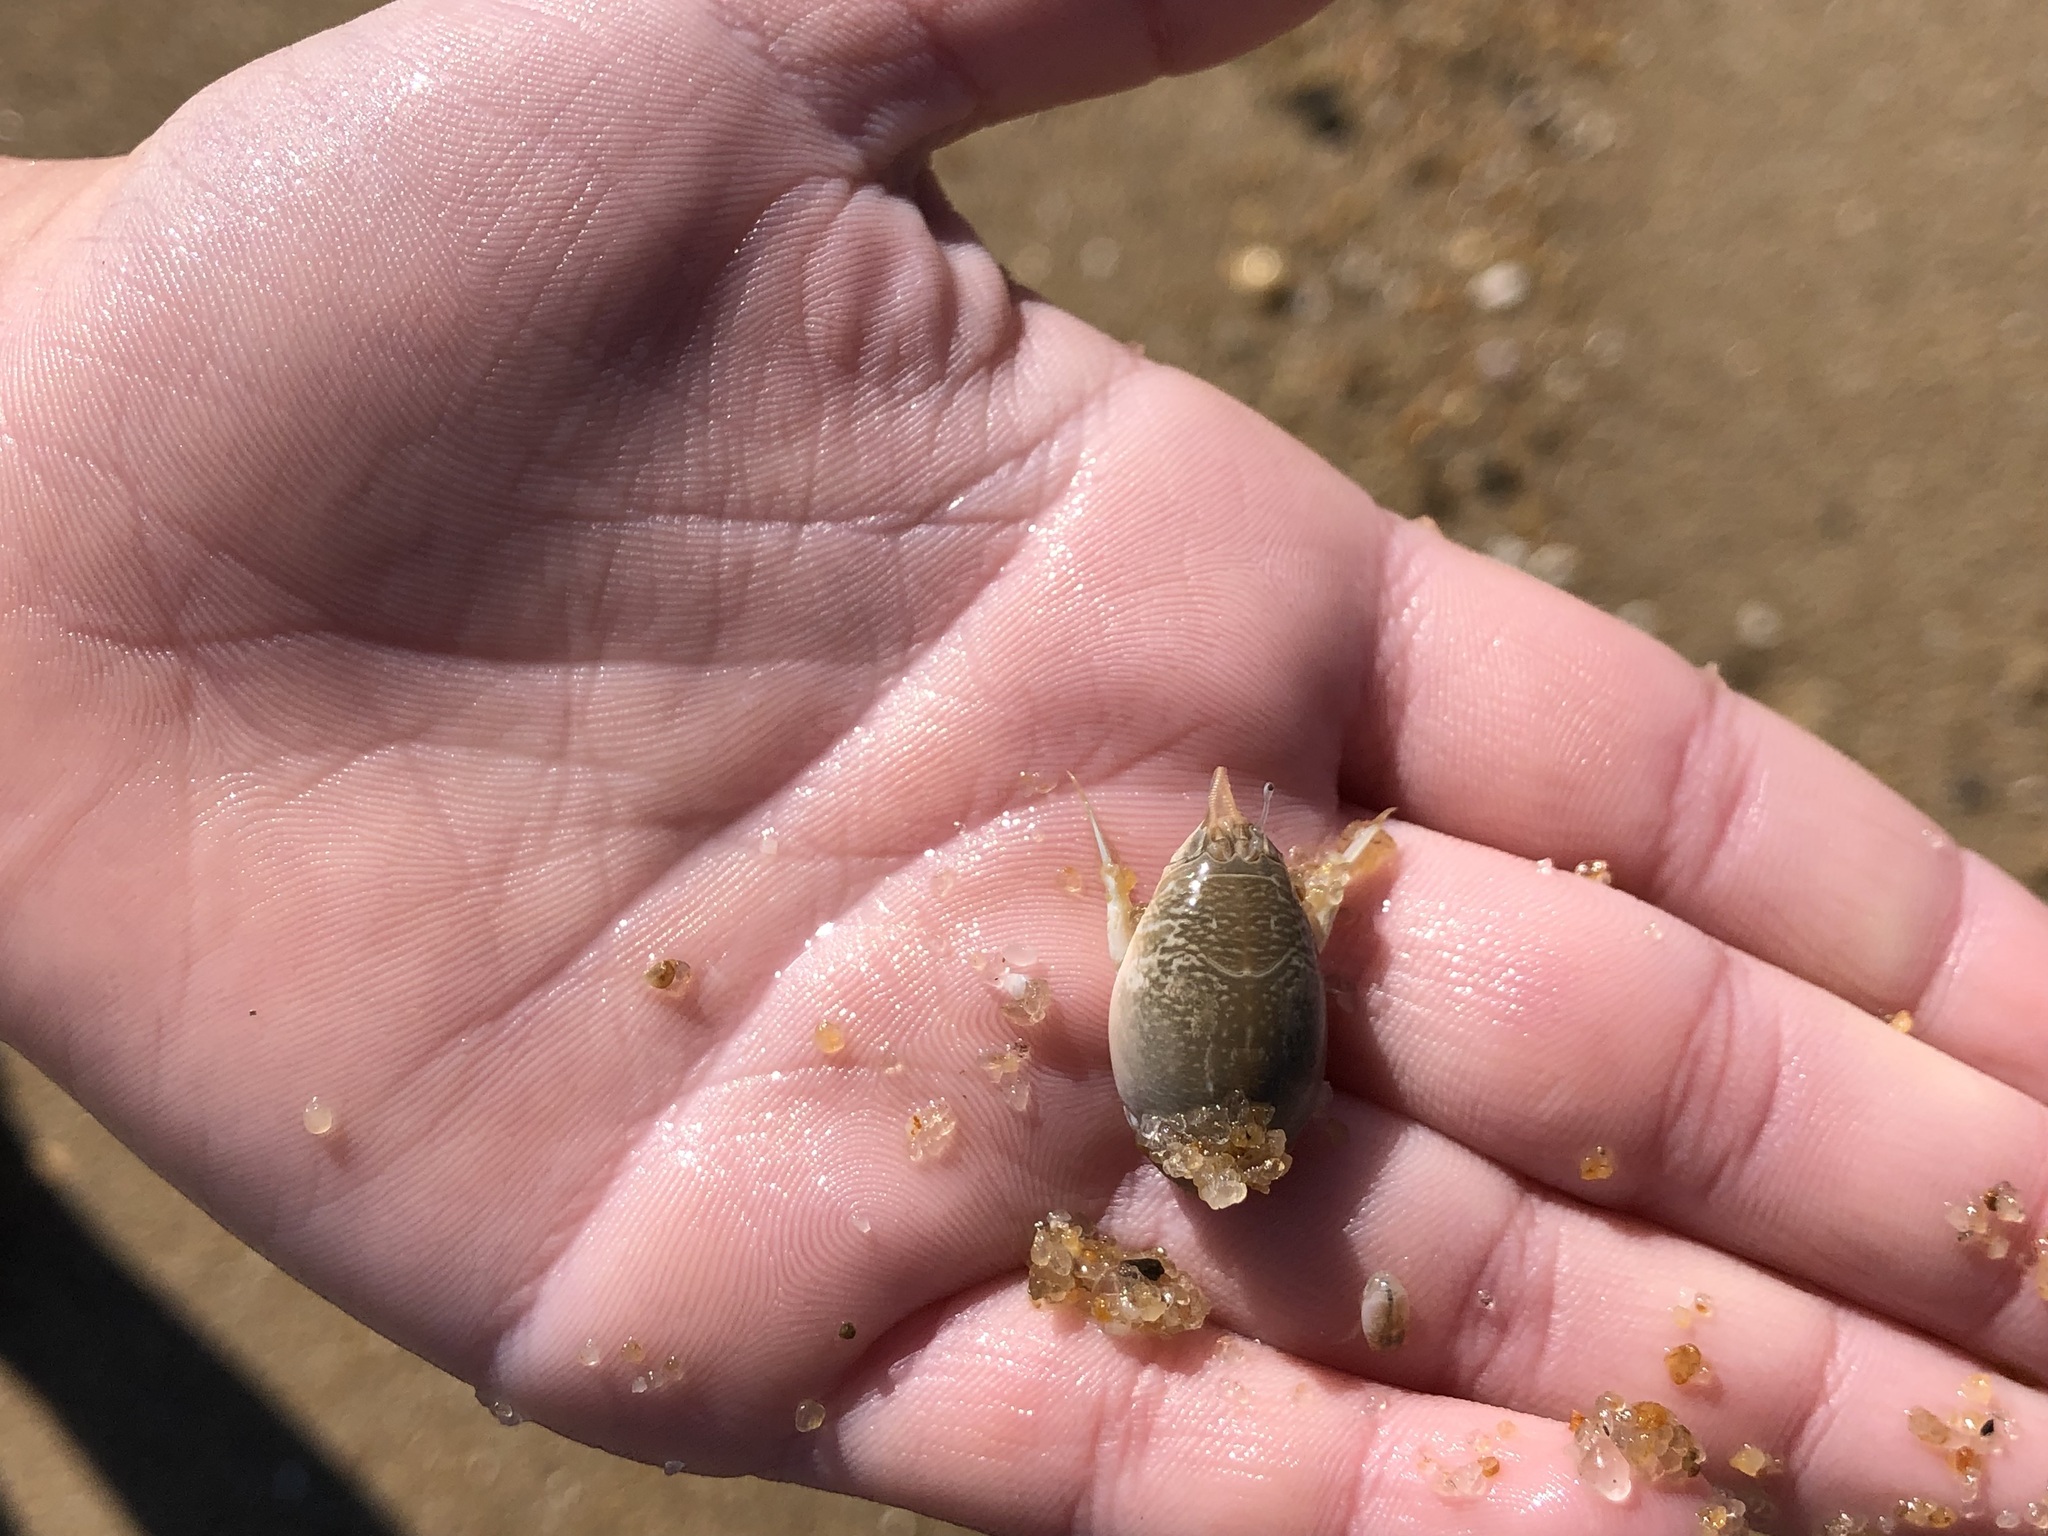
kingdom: Animalia
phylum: Arthropoda
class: Malacostraca
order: Decapoda
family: Hippidae
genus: Emerita
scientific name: Emerita talpoida
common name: Atlantic sand crab
